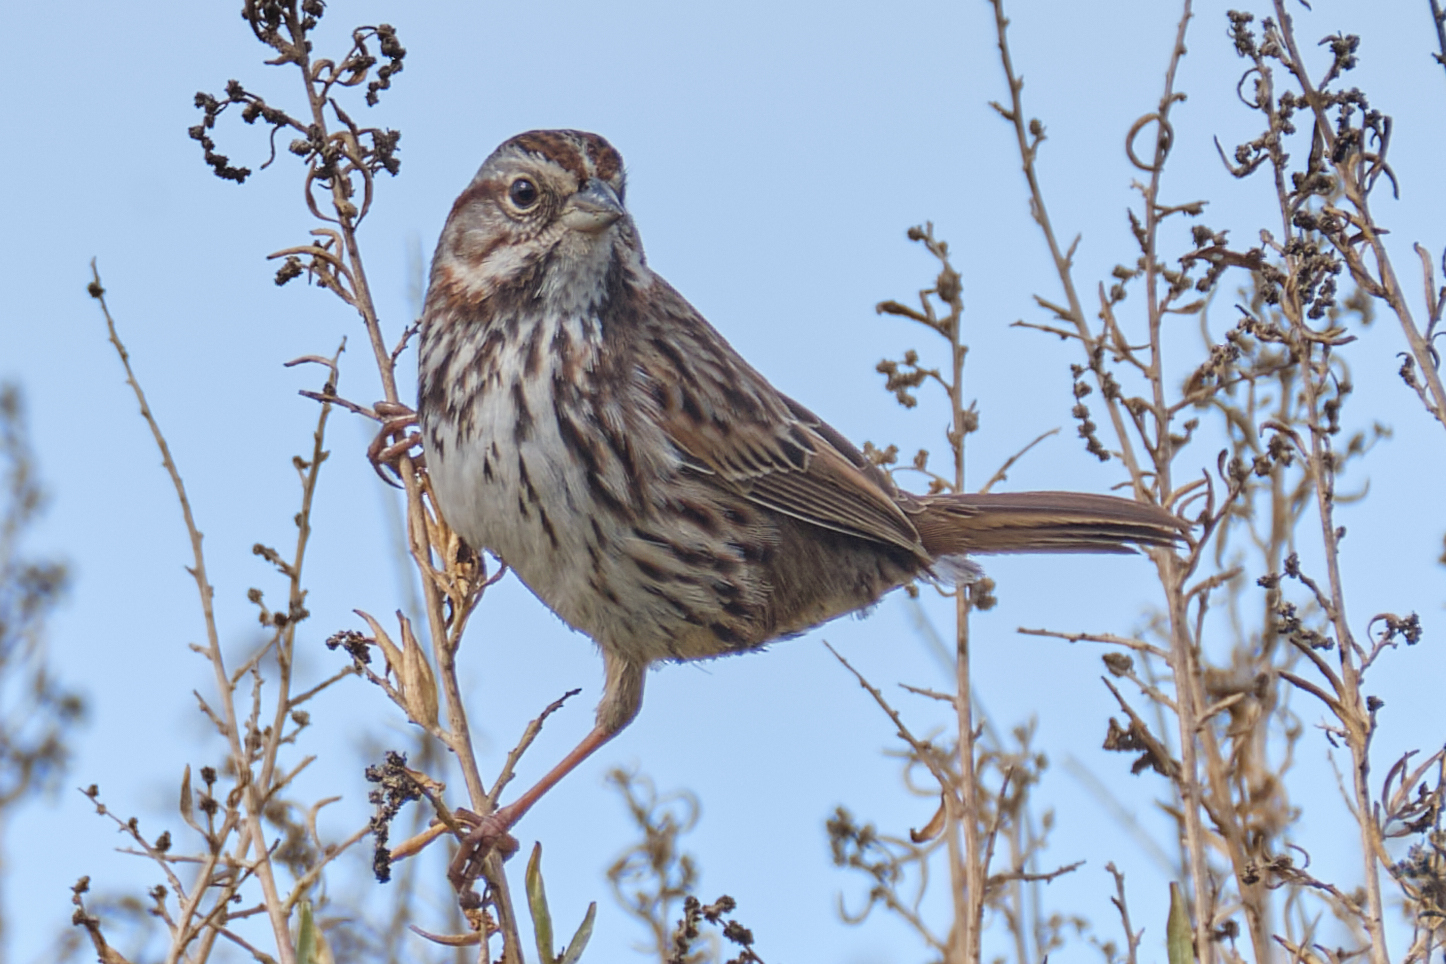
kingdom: Animalia
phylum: Chordata
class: Aves
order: Passeriformes
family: Passerellidae
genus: Melospiza
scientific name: Melospiza melodia
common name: Song sparrow
